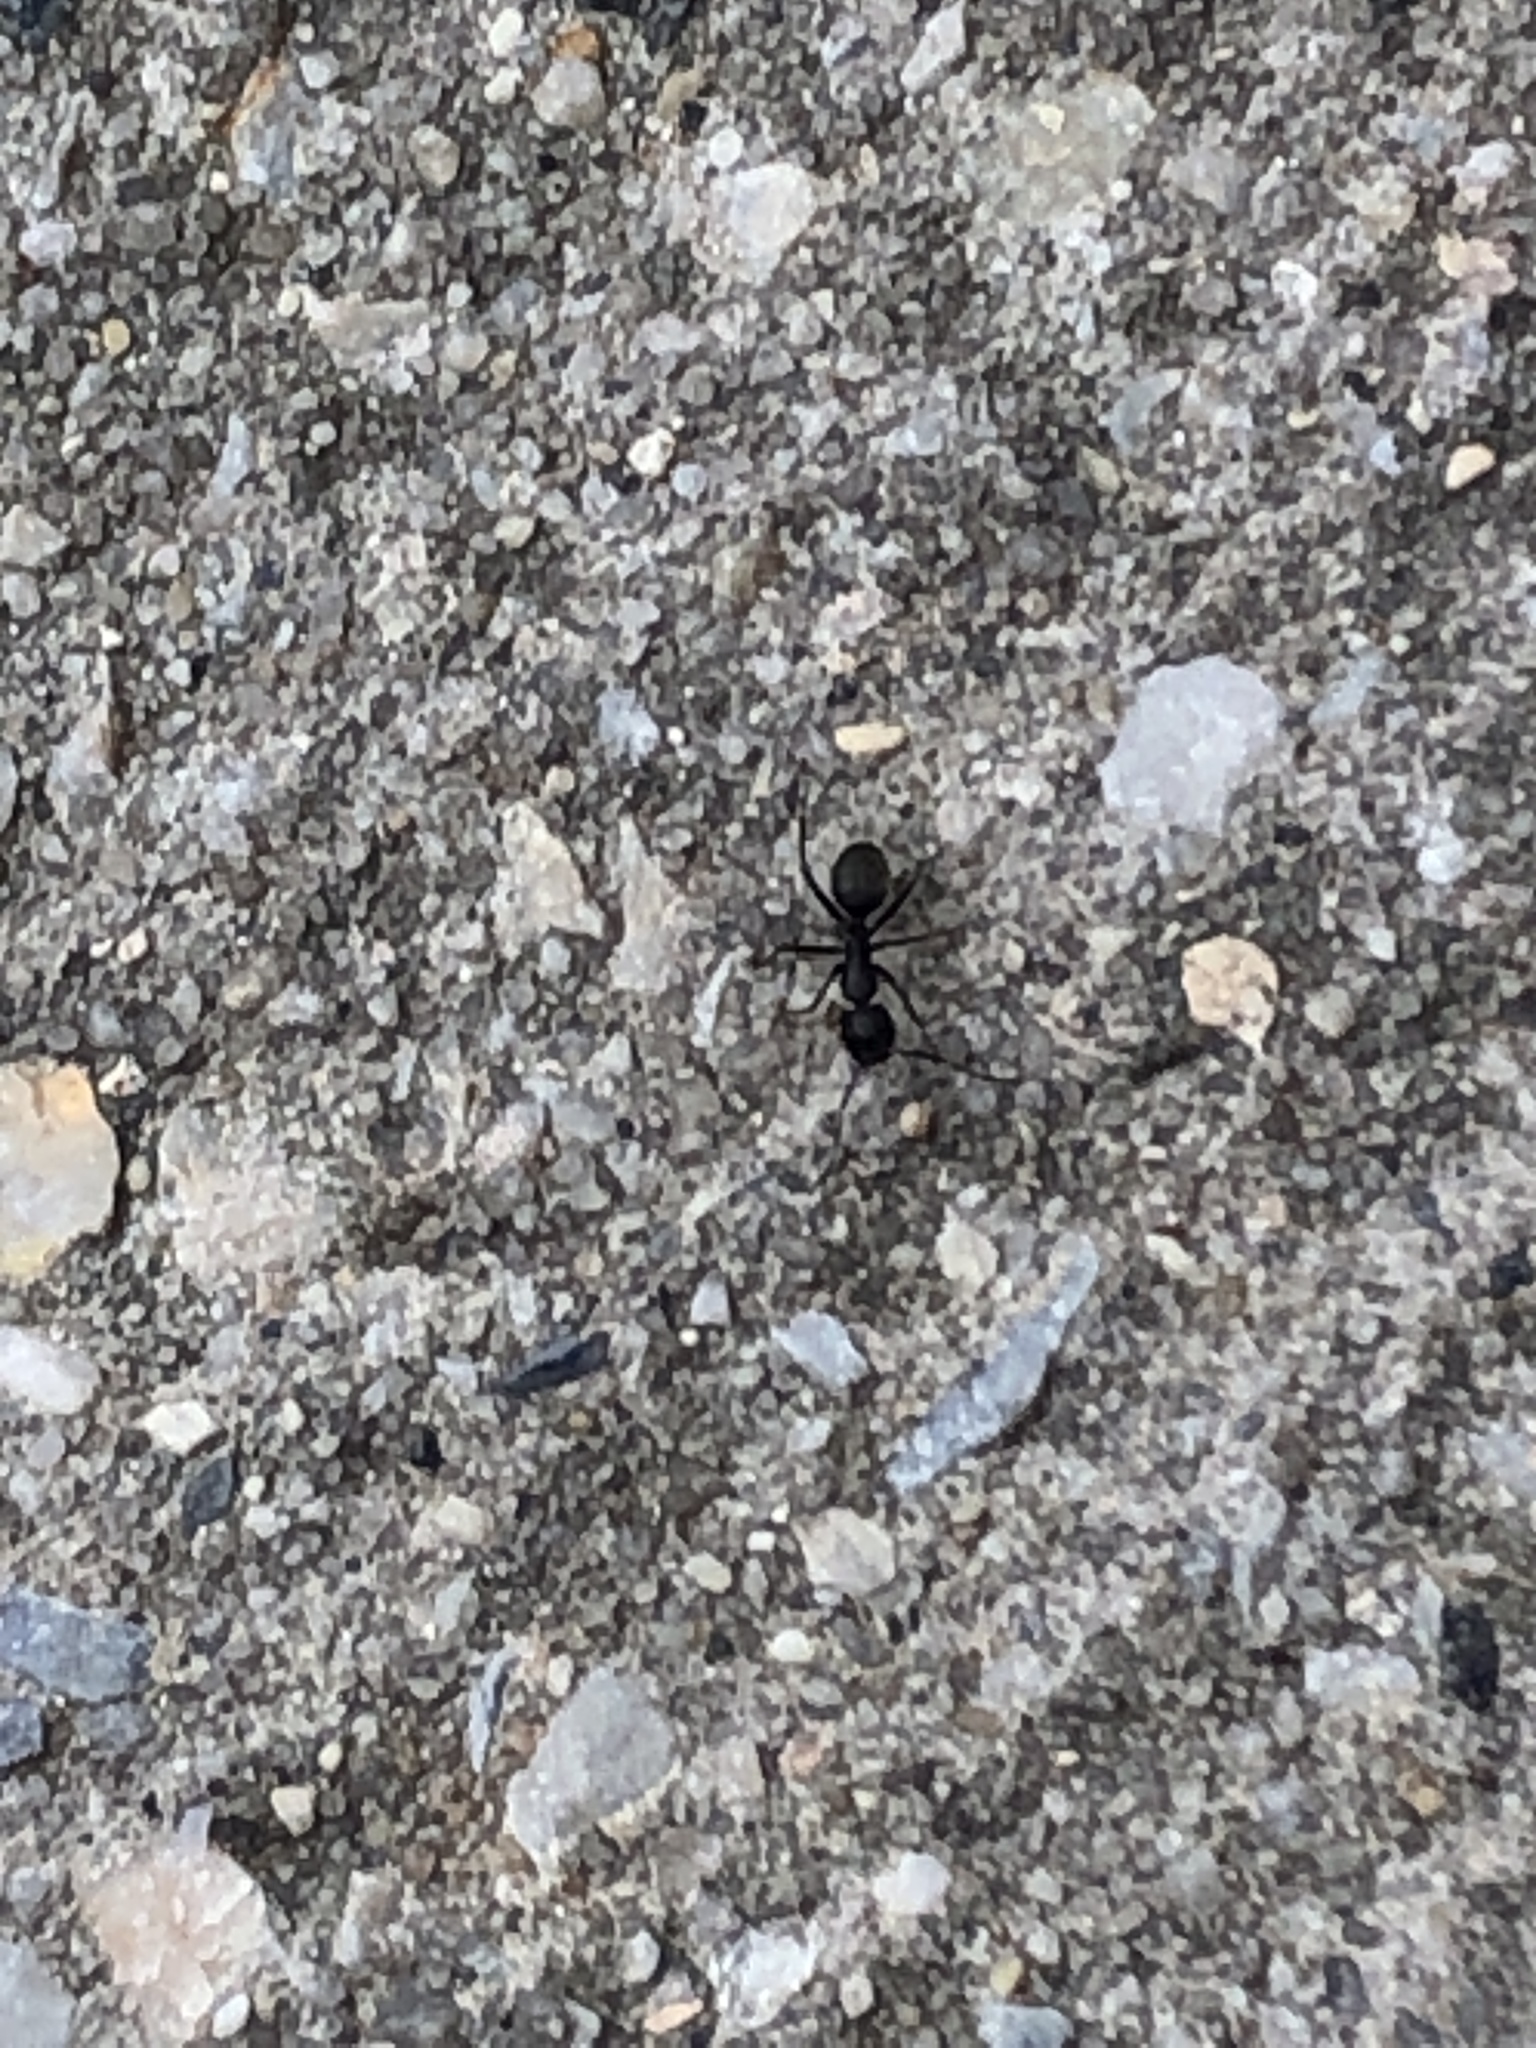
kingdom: Animalia
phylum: Arthropoda
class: Insecta
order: Hymenoptera
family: Formicidae
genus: Camponotus
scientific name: Camponotus pennsylvanicus
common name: Black carpenter ant
